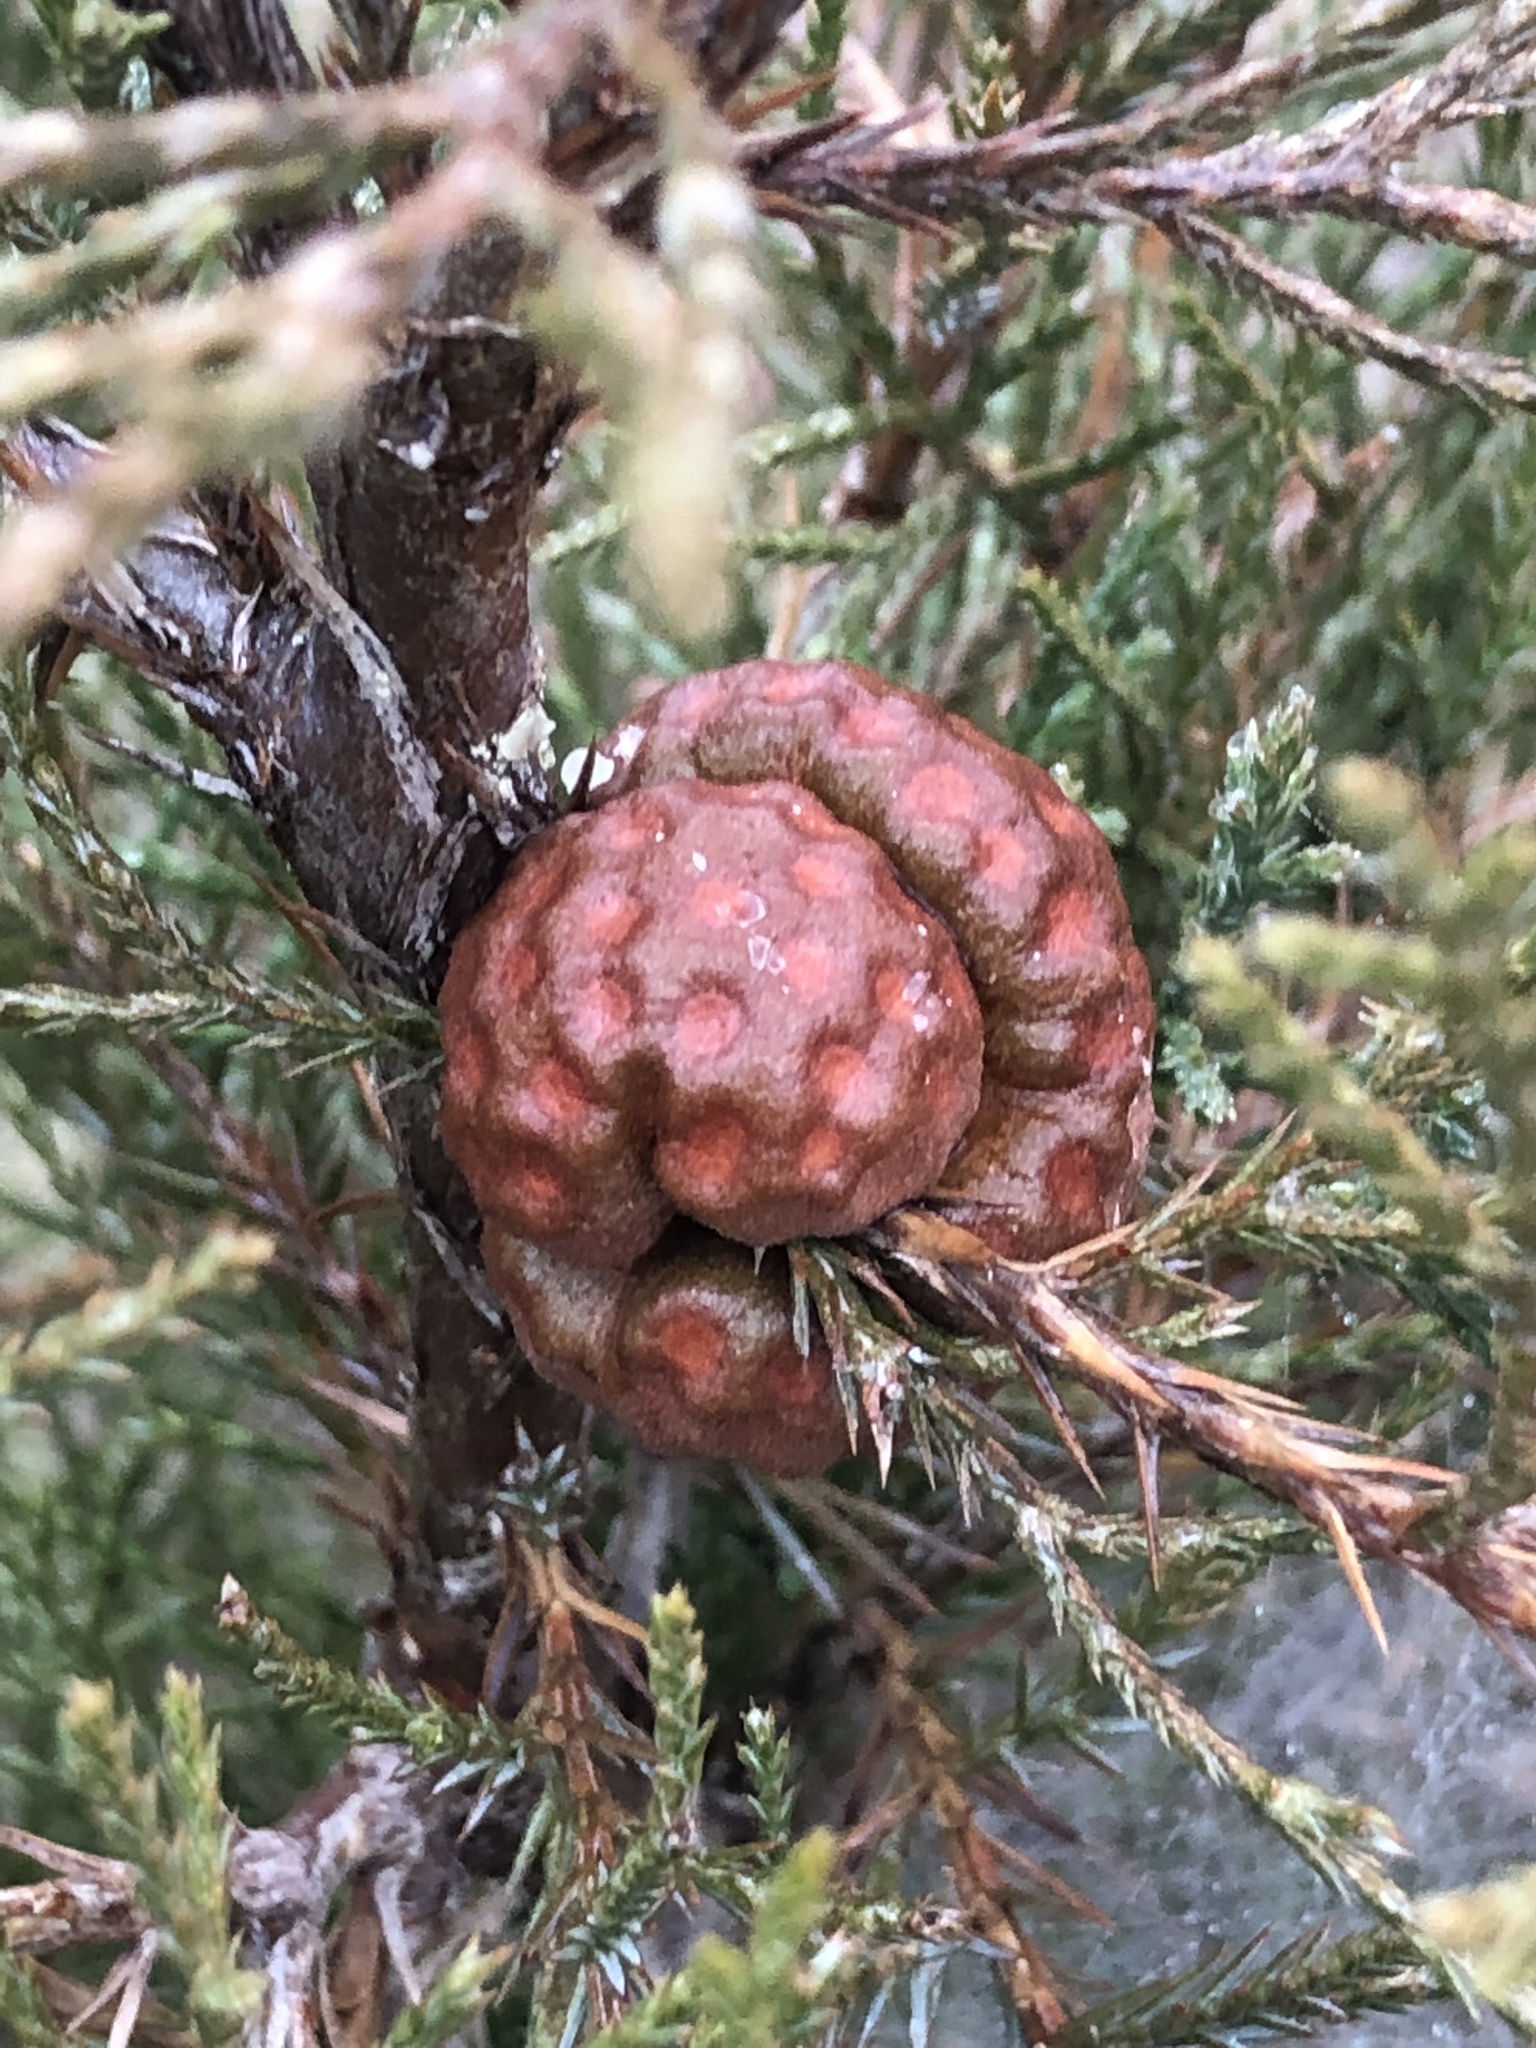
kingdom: Fungi
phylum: Basidiomycota
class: Pucciniomycetes
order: Pucciniales
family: Gymnosporangiaceae
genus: Gymnosporangium
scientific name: Gymnosporangium juniperi-virginianae
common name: Juniper-apple rust
